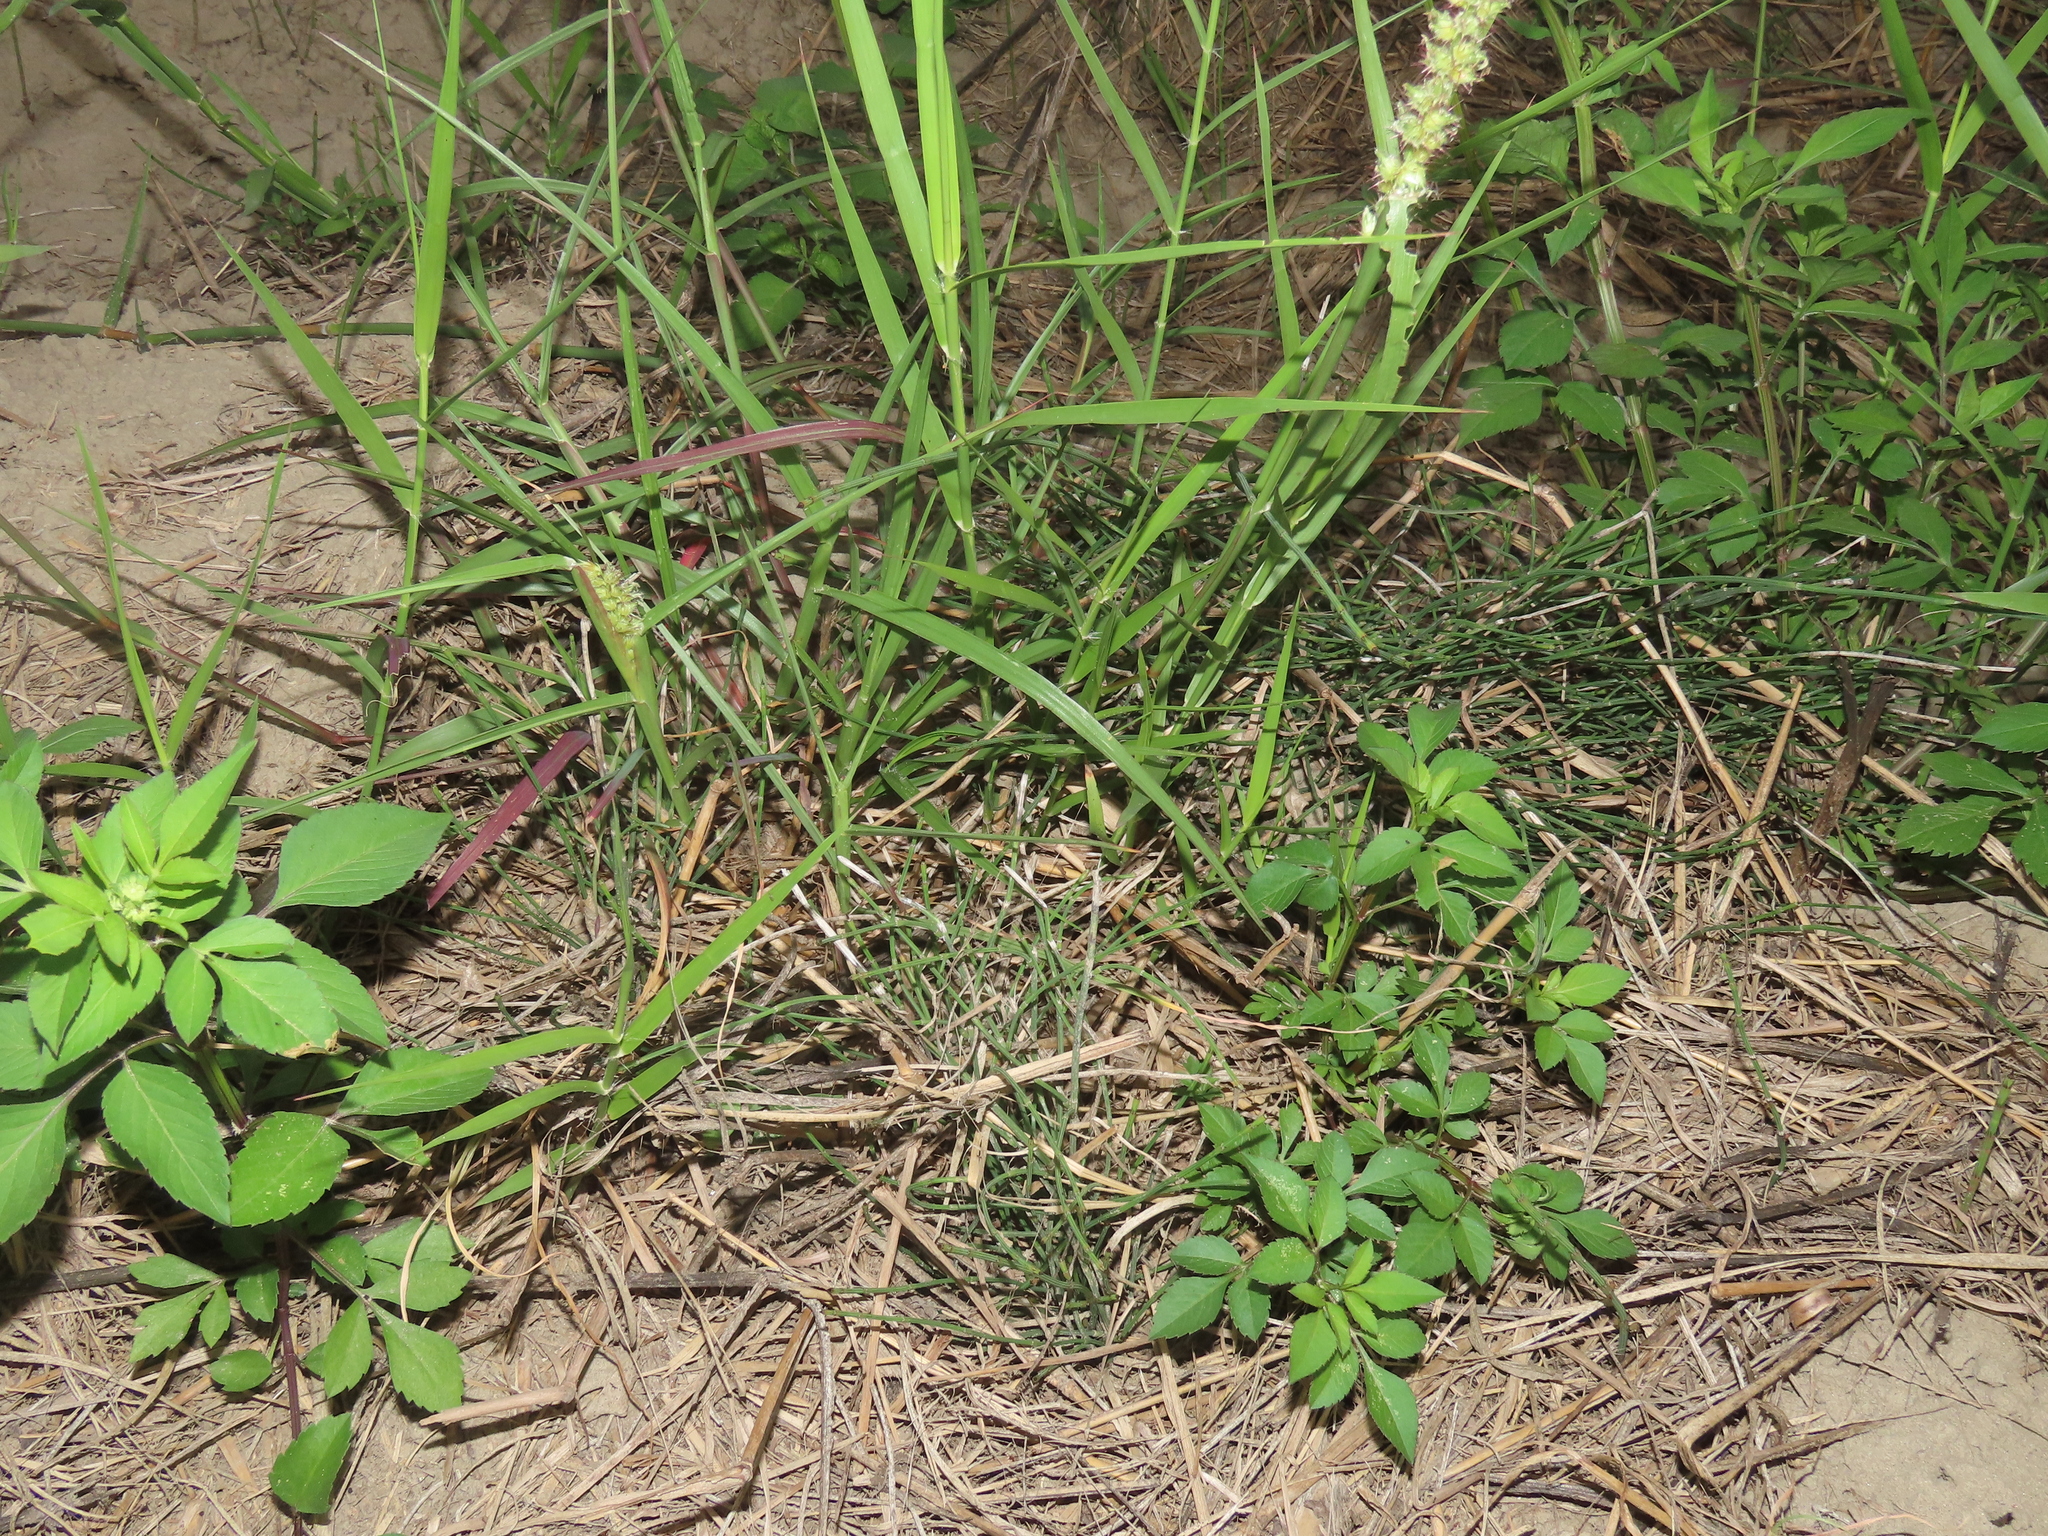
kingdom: Plantae
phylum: Tracheophyta
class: Polypodiopsida
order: Equisetales
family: Equisetaceae
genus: Equisetum
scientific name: Equisetum ramosissimum
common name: Branched horsetail
